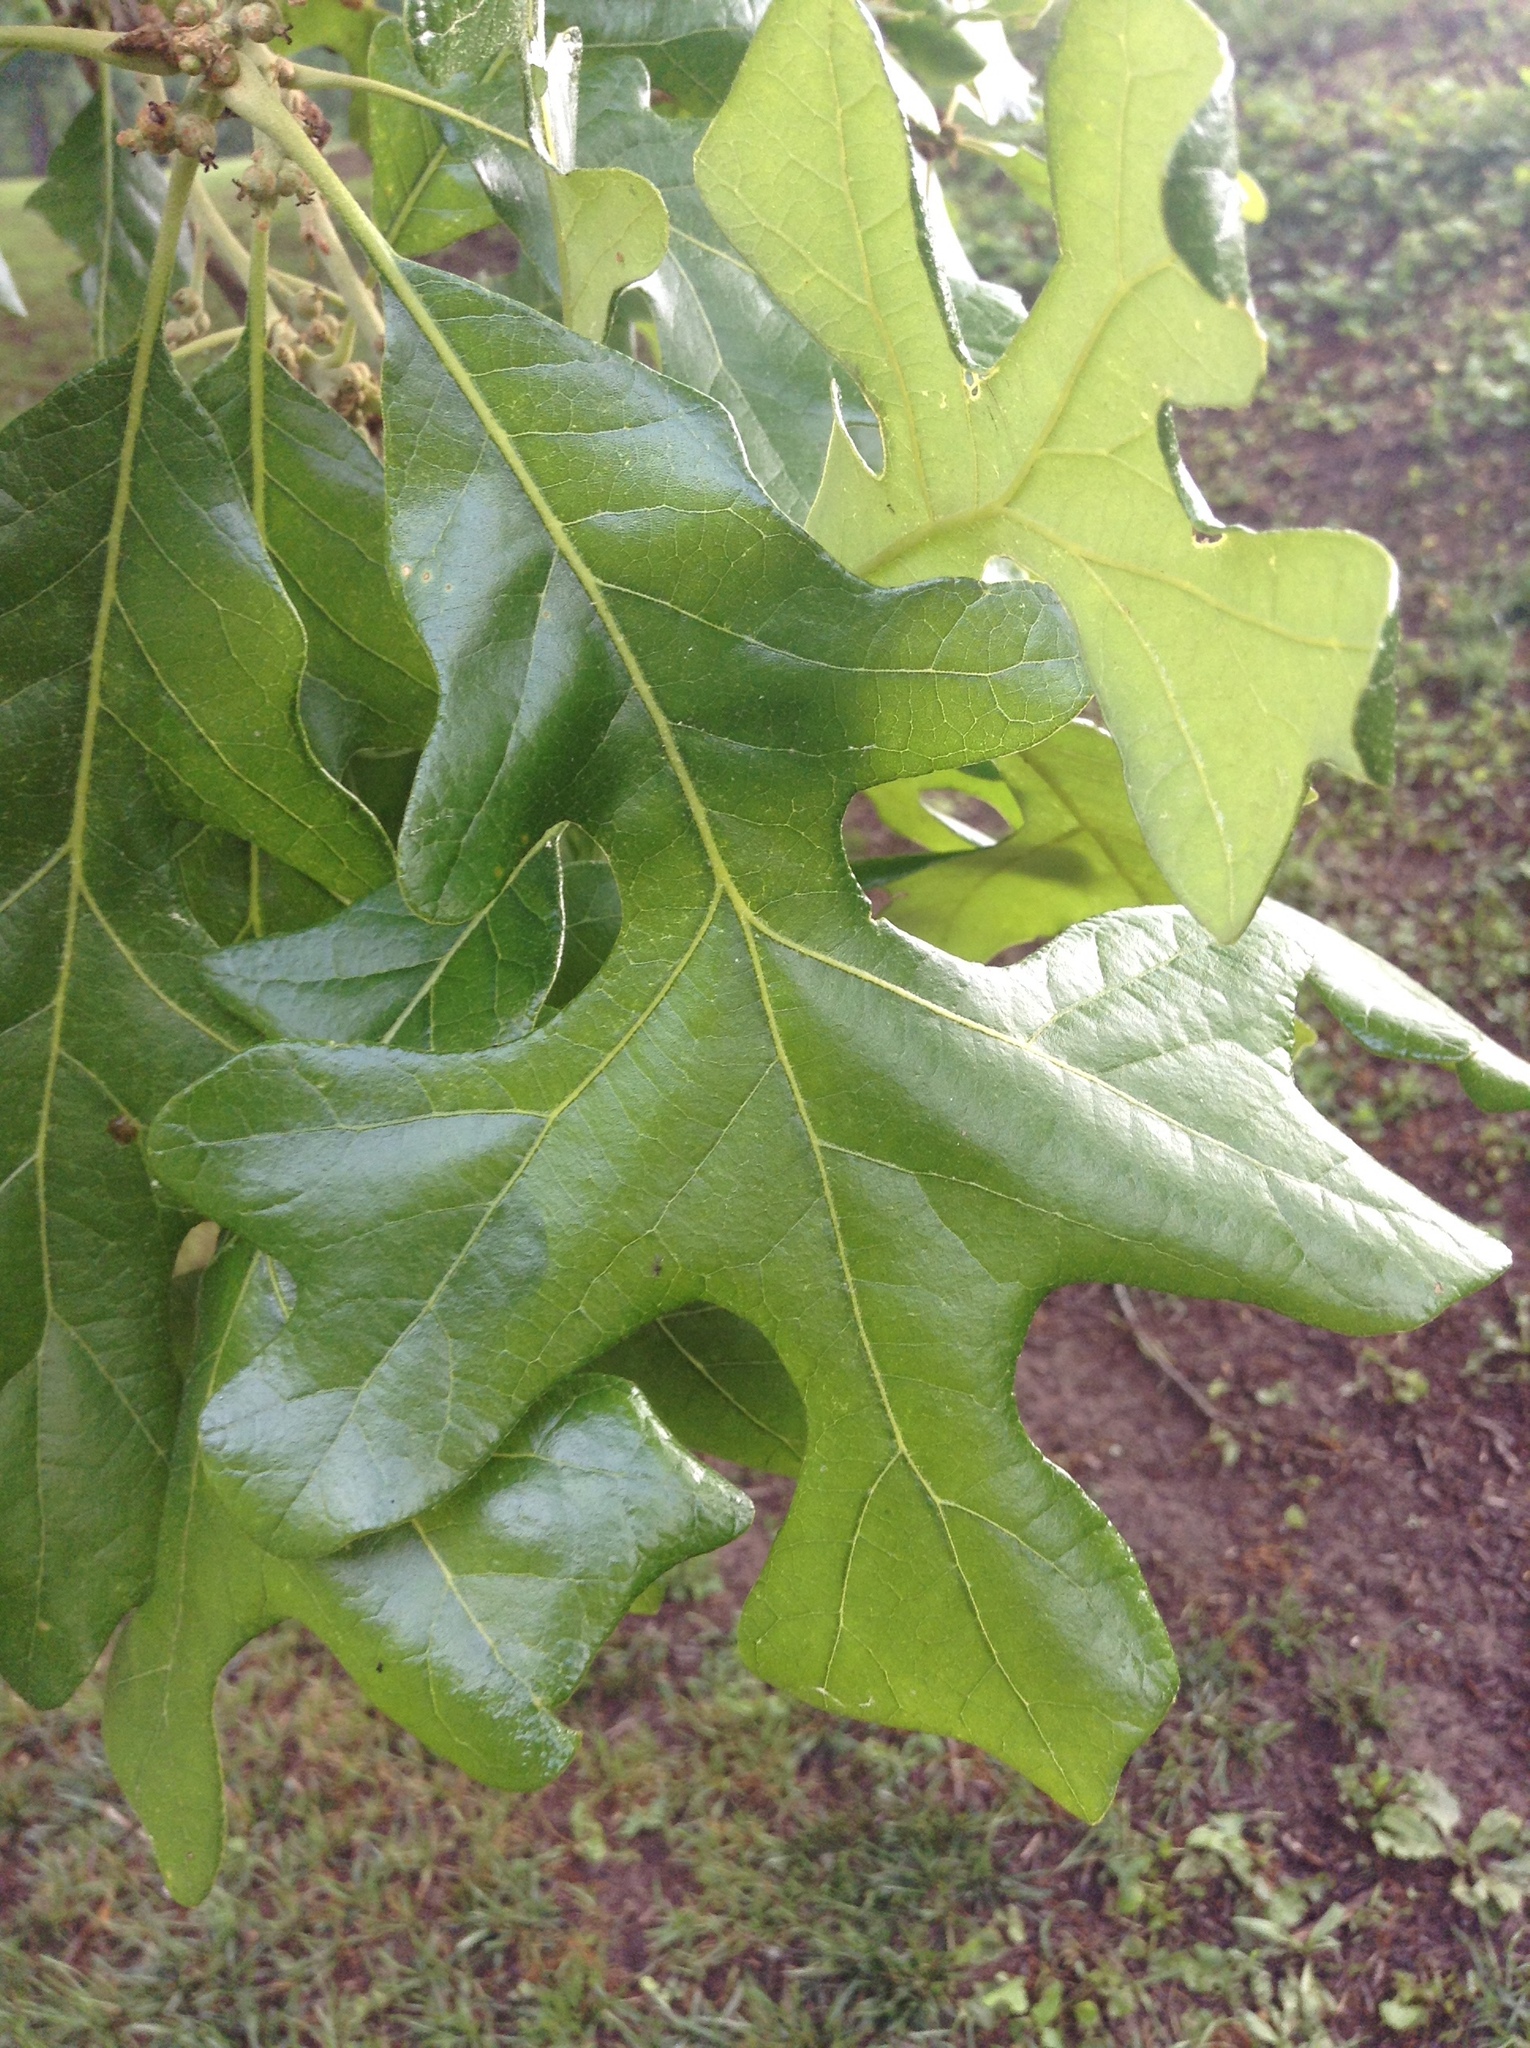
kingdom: Plantae
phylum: Tracheophyta
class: Magnoliopsida
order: Fagales
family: Fagaceae
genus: Quercus
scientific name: Quercus stellata
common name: Post oak
